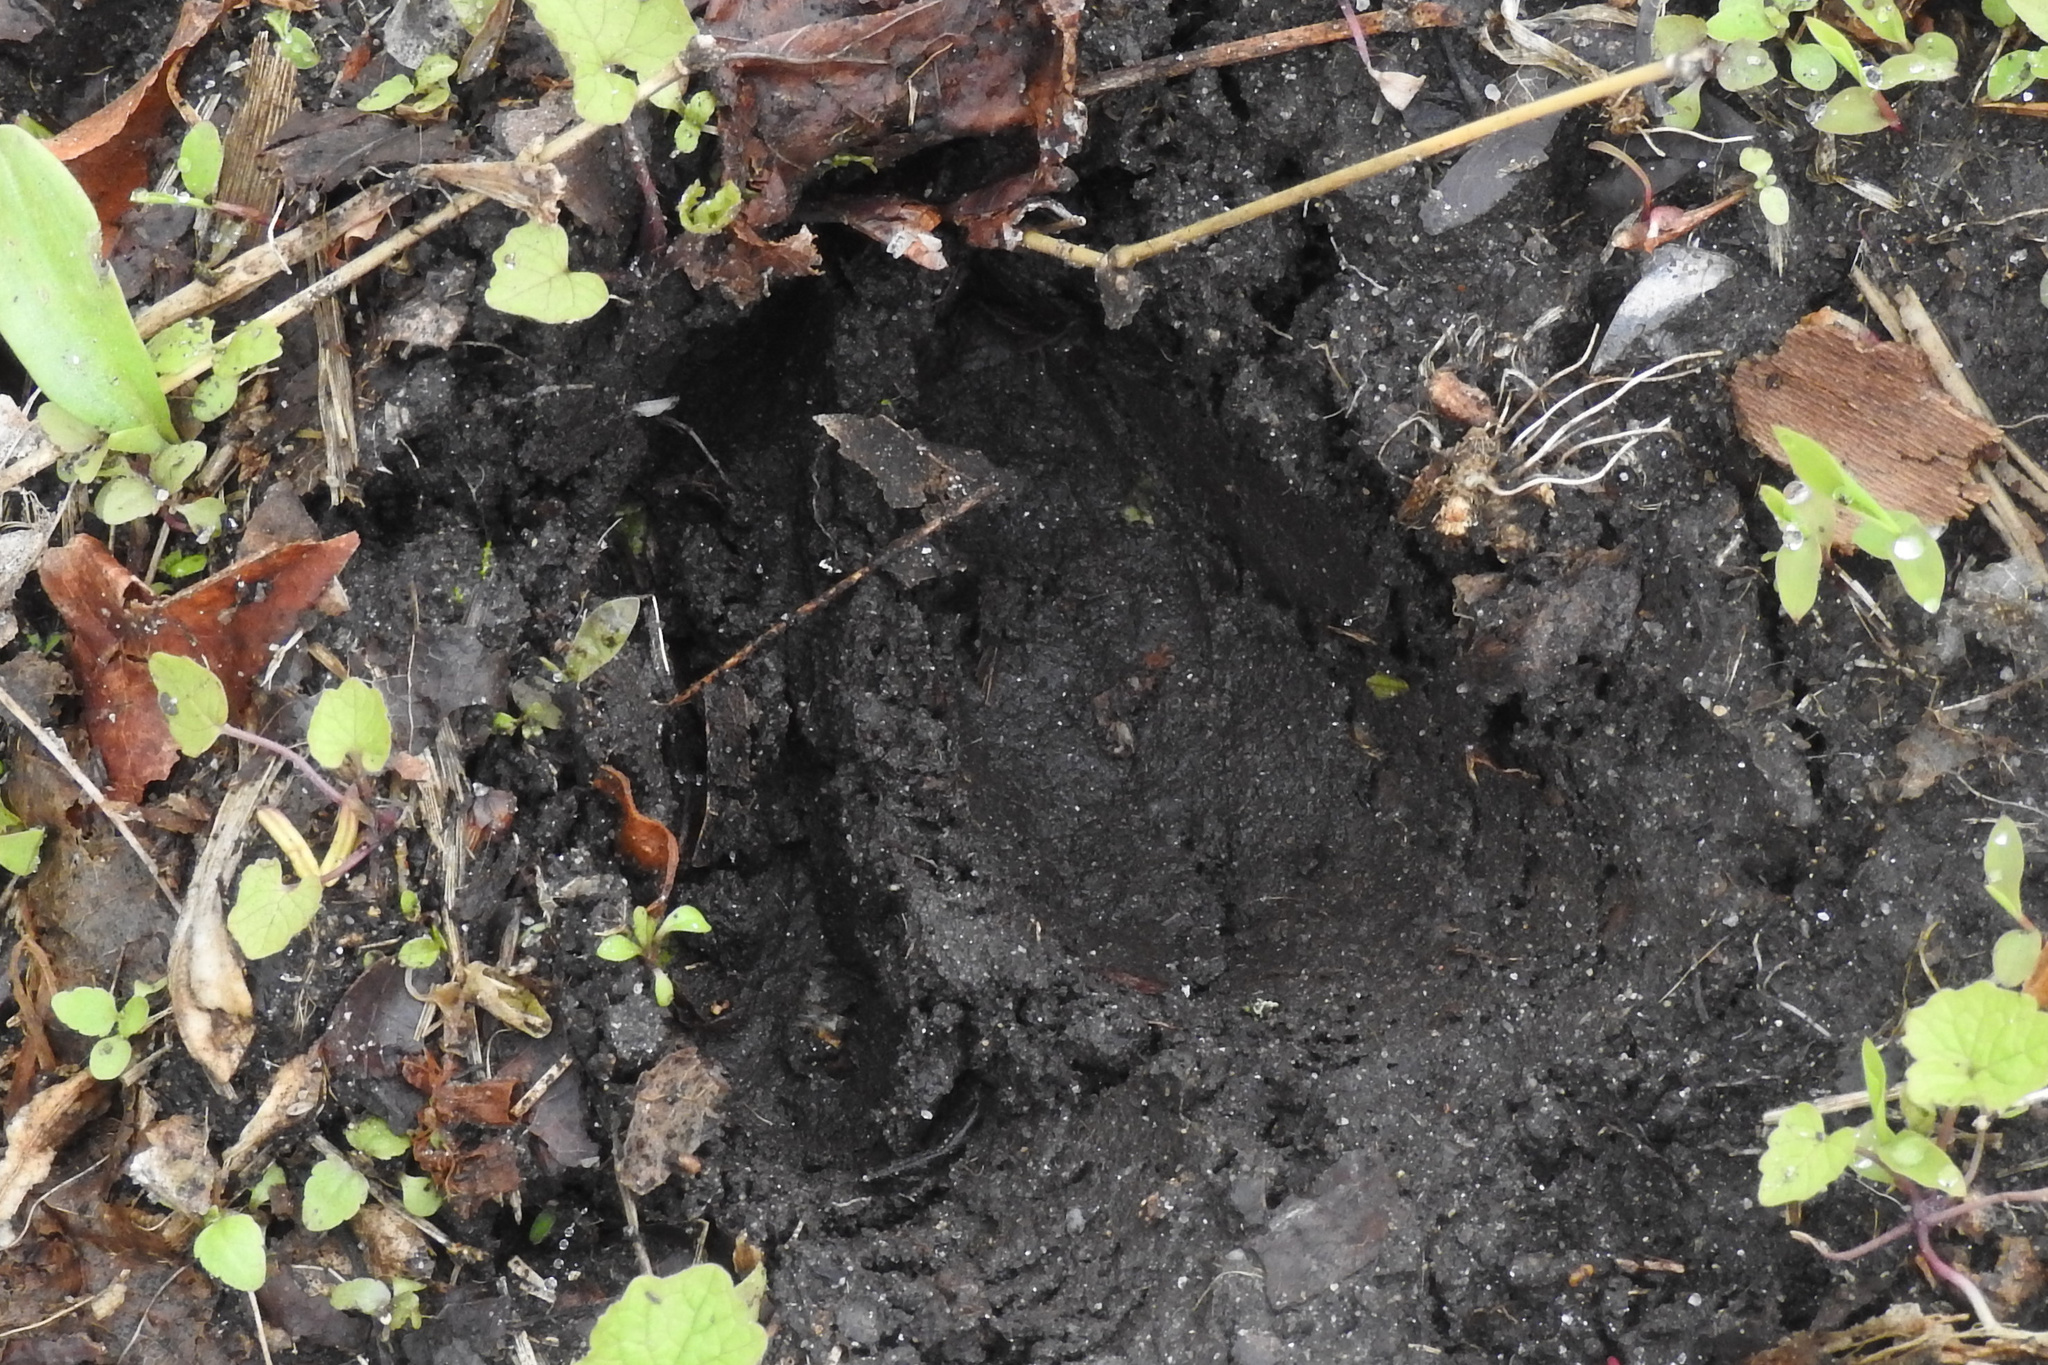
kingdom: Animalia
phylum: Chordata
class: Mammalia
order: Artiodactyla
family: Cervidae
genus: Odocoileus
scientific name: Odocoileus virginianus
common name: White-tailed deer
